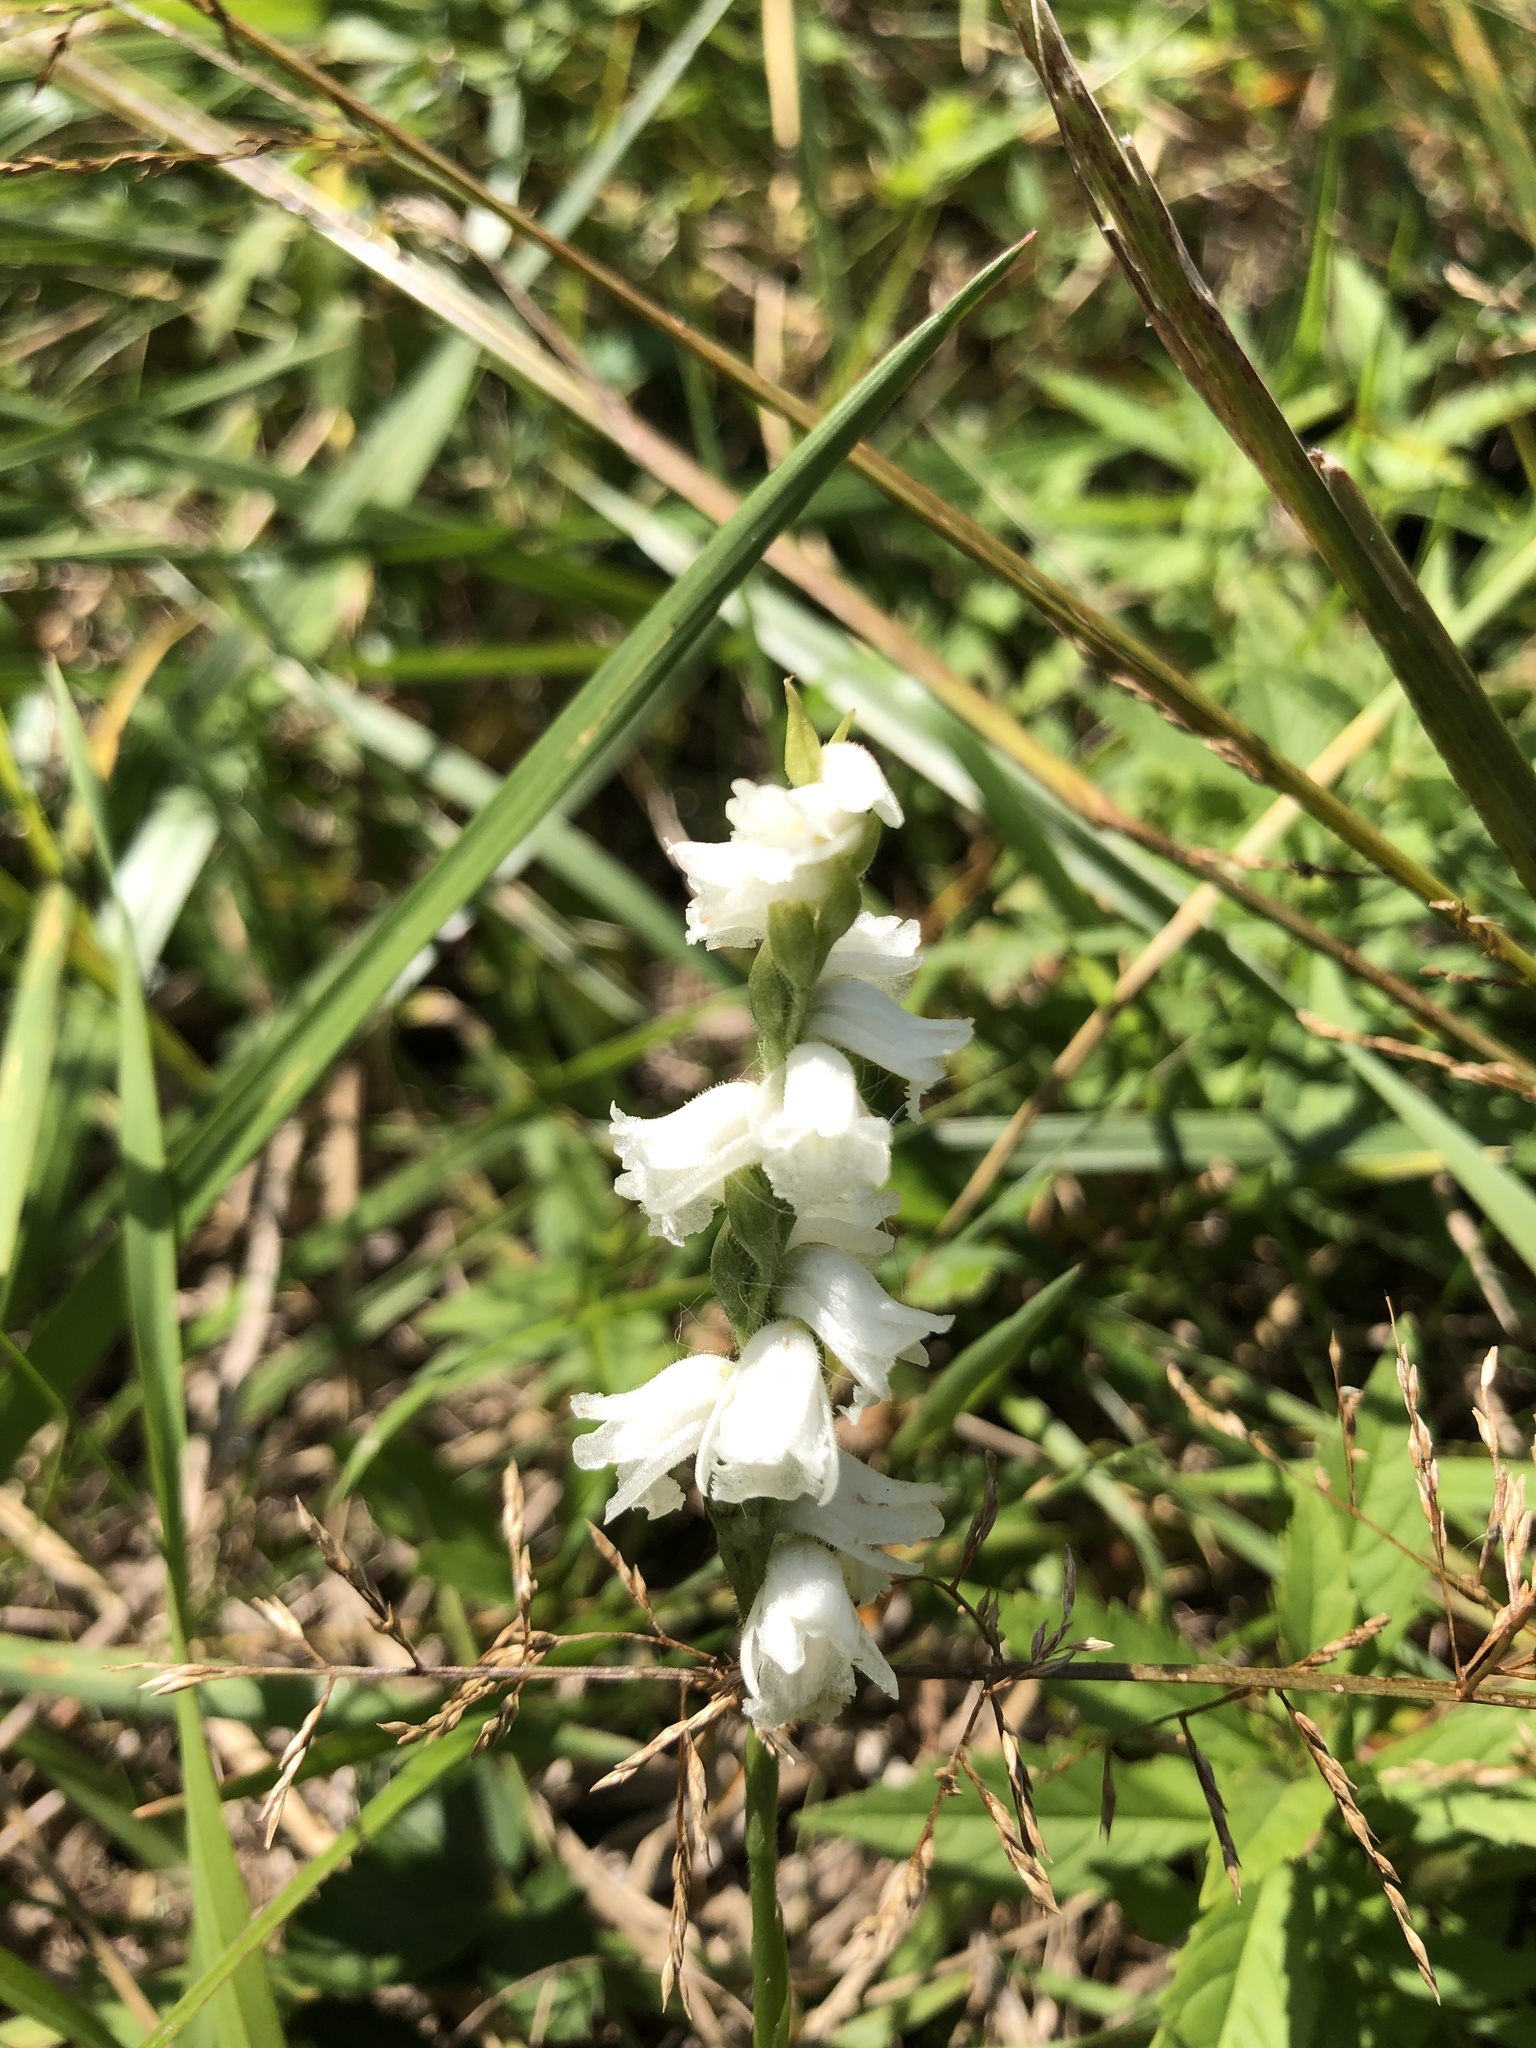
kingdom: Plantae
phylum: Tracheophyta
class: Liliopsida
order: Asparagales
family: Orchidaceae
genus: Spiranthes
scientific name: Spiranthes arcisepala
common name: Appalachian ladies'-tresses
